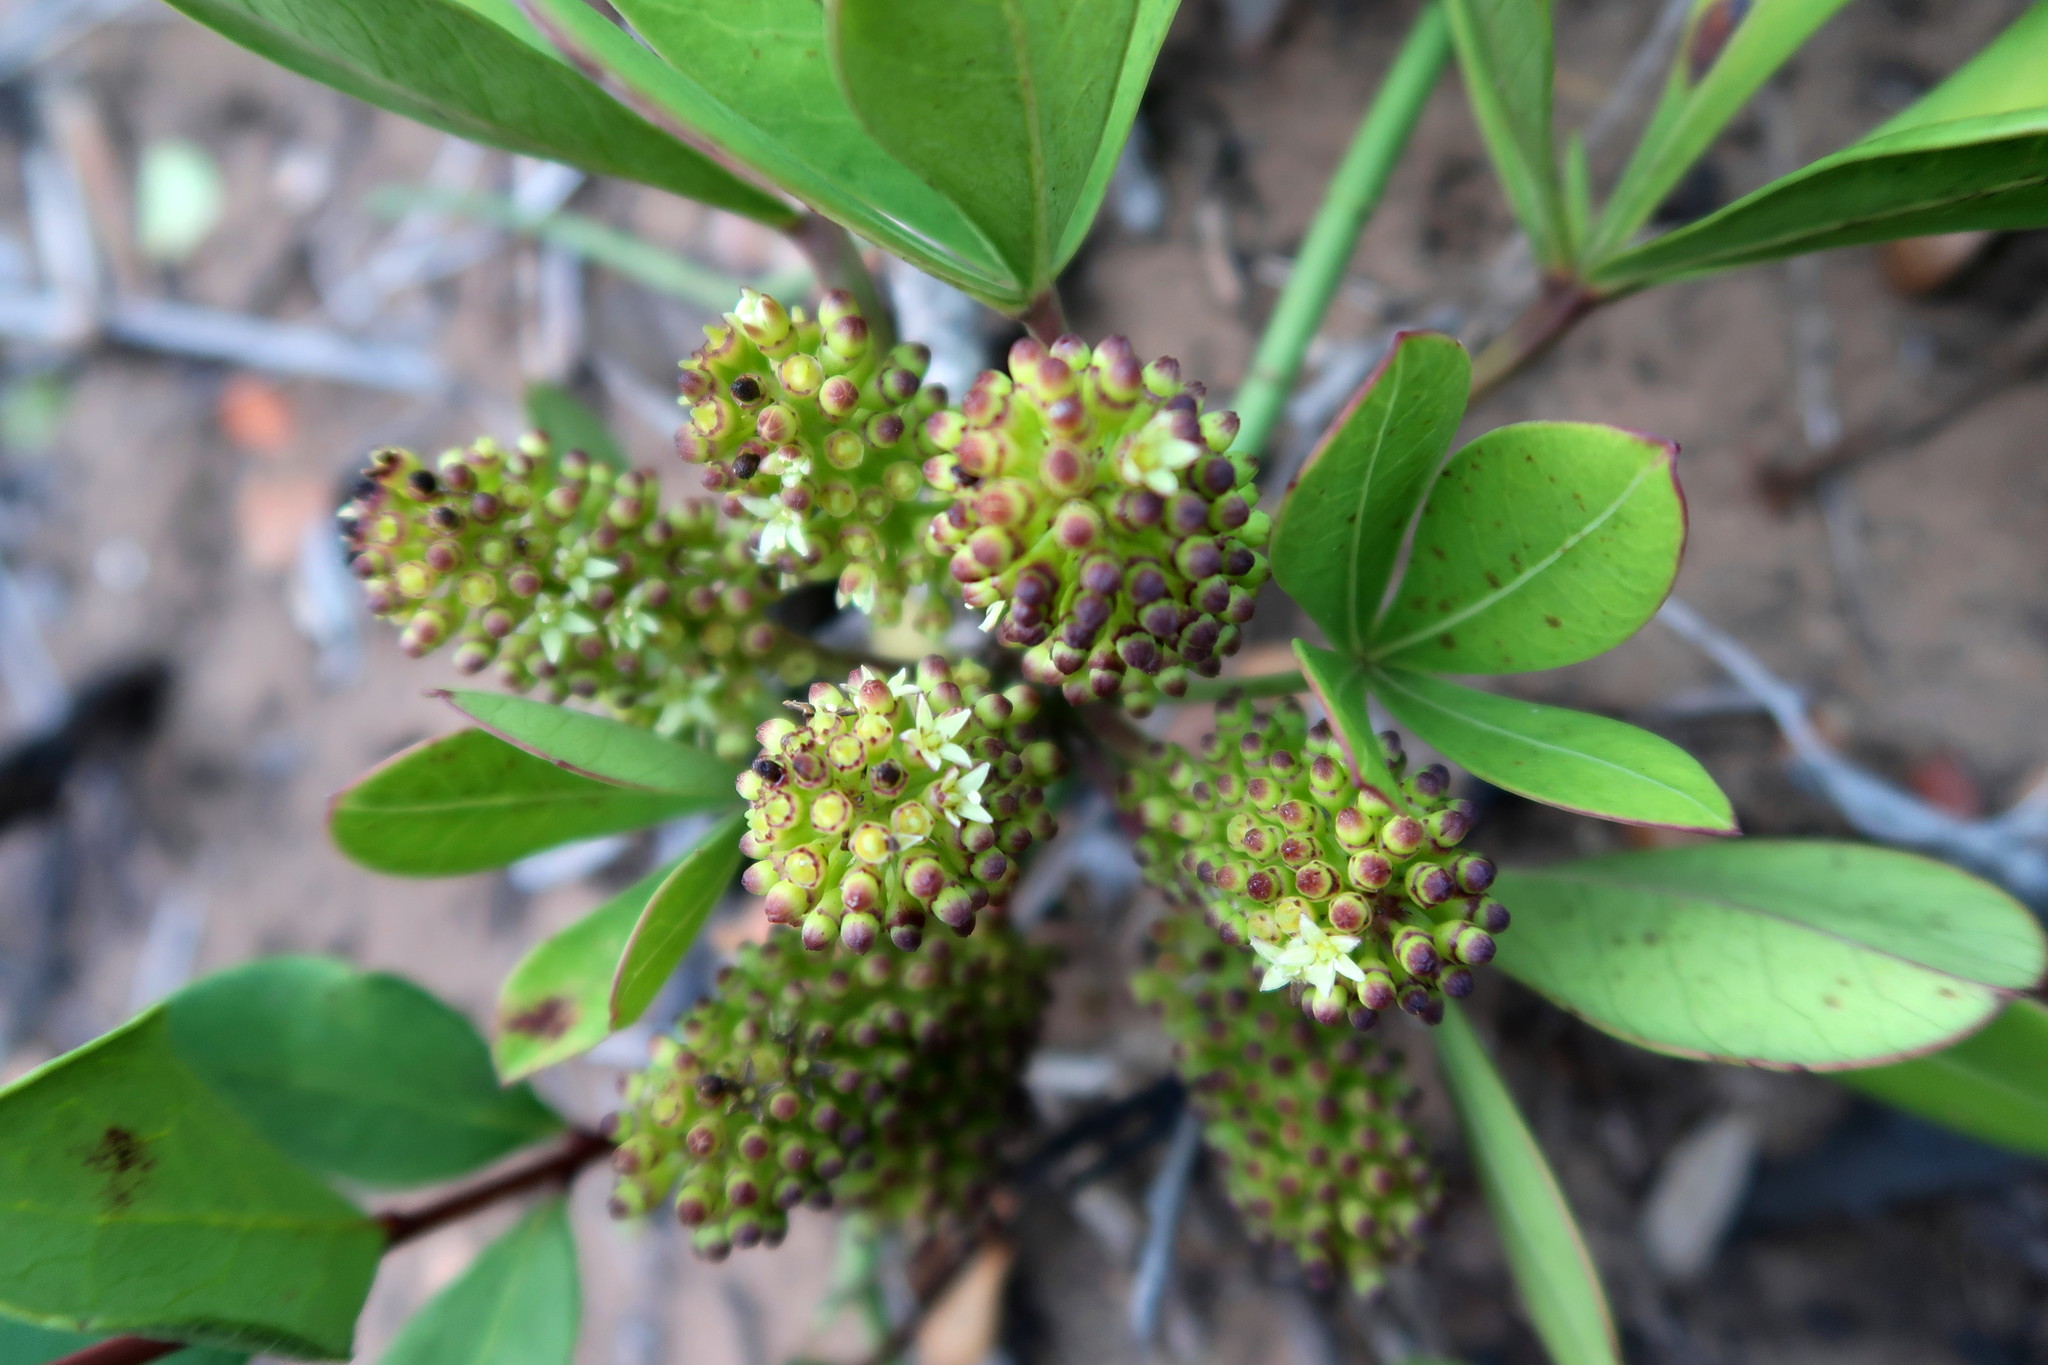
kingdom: Plantae
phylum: Tracheophyta
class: Magnoliopsida
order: Apiales
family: Araliaceae
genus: Cussonia
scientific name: Cussonia thyrsiflora
